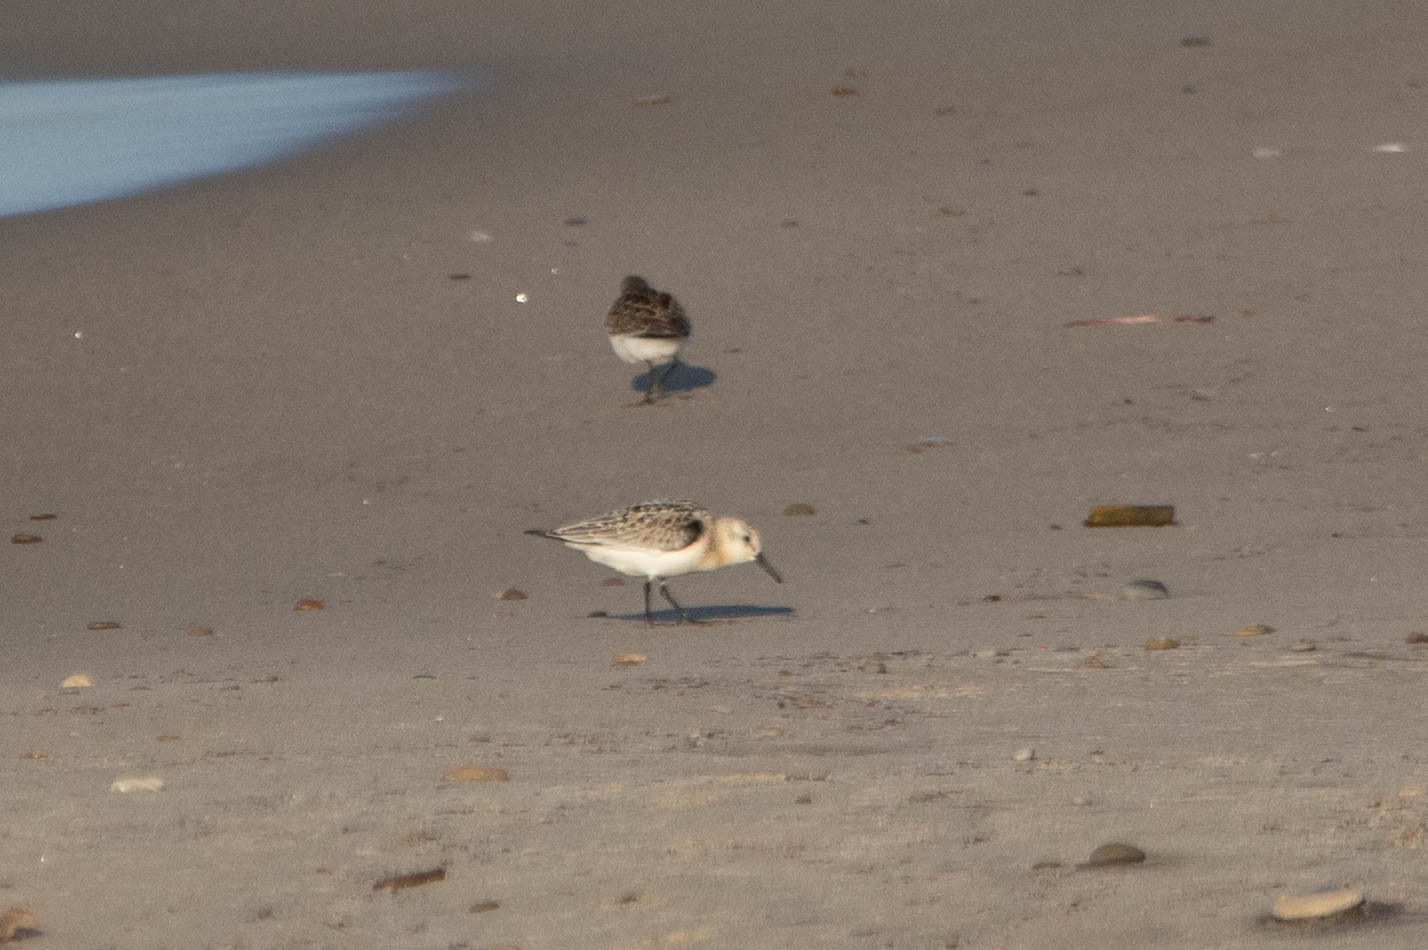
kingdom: Animalia
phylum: Chordata
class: Aves
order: Charadriiformes
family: Scolopacidae
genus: Calidris
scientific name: Calidris alba
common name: Sanderling
